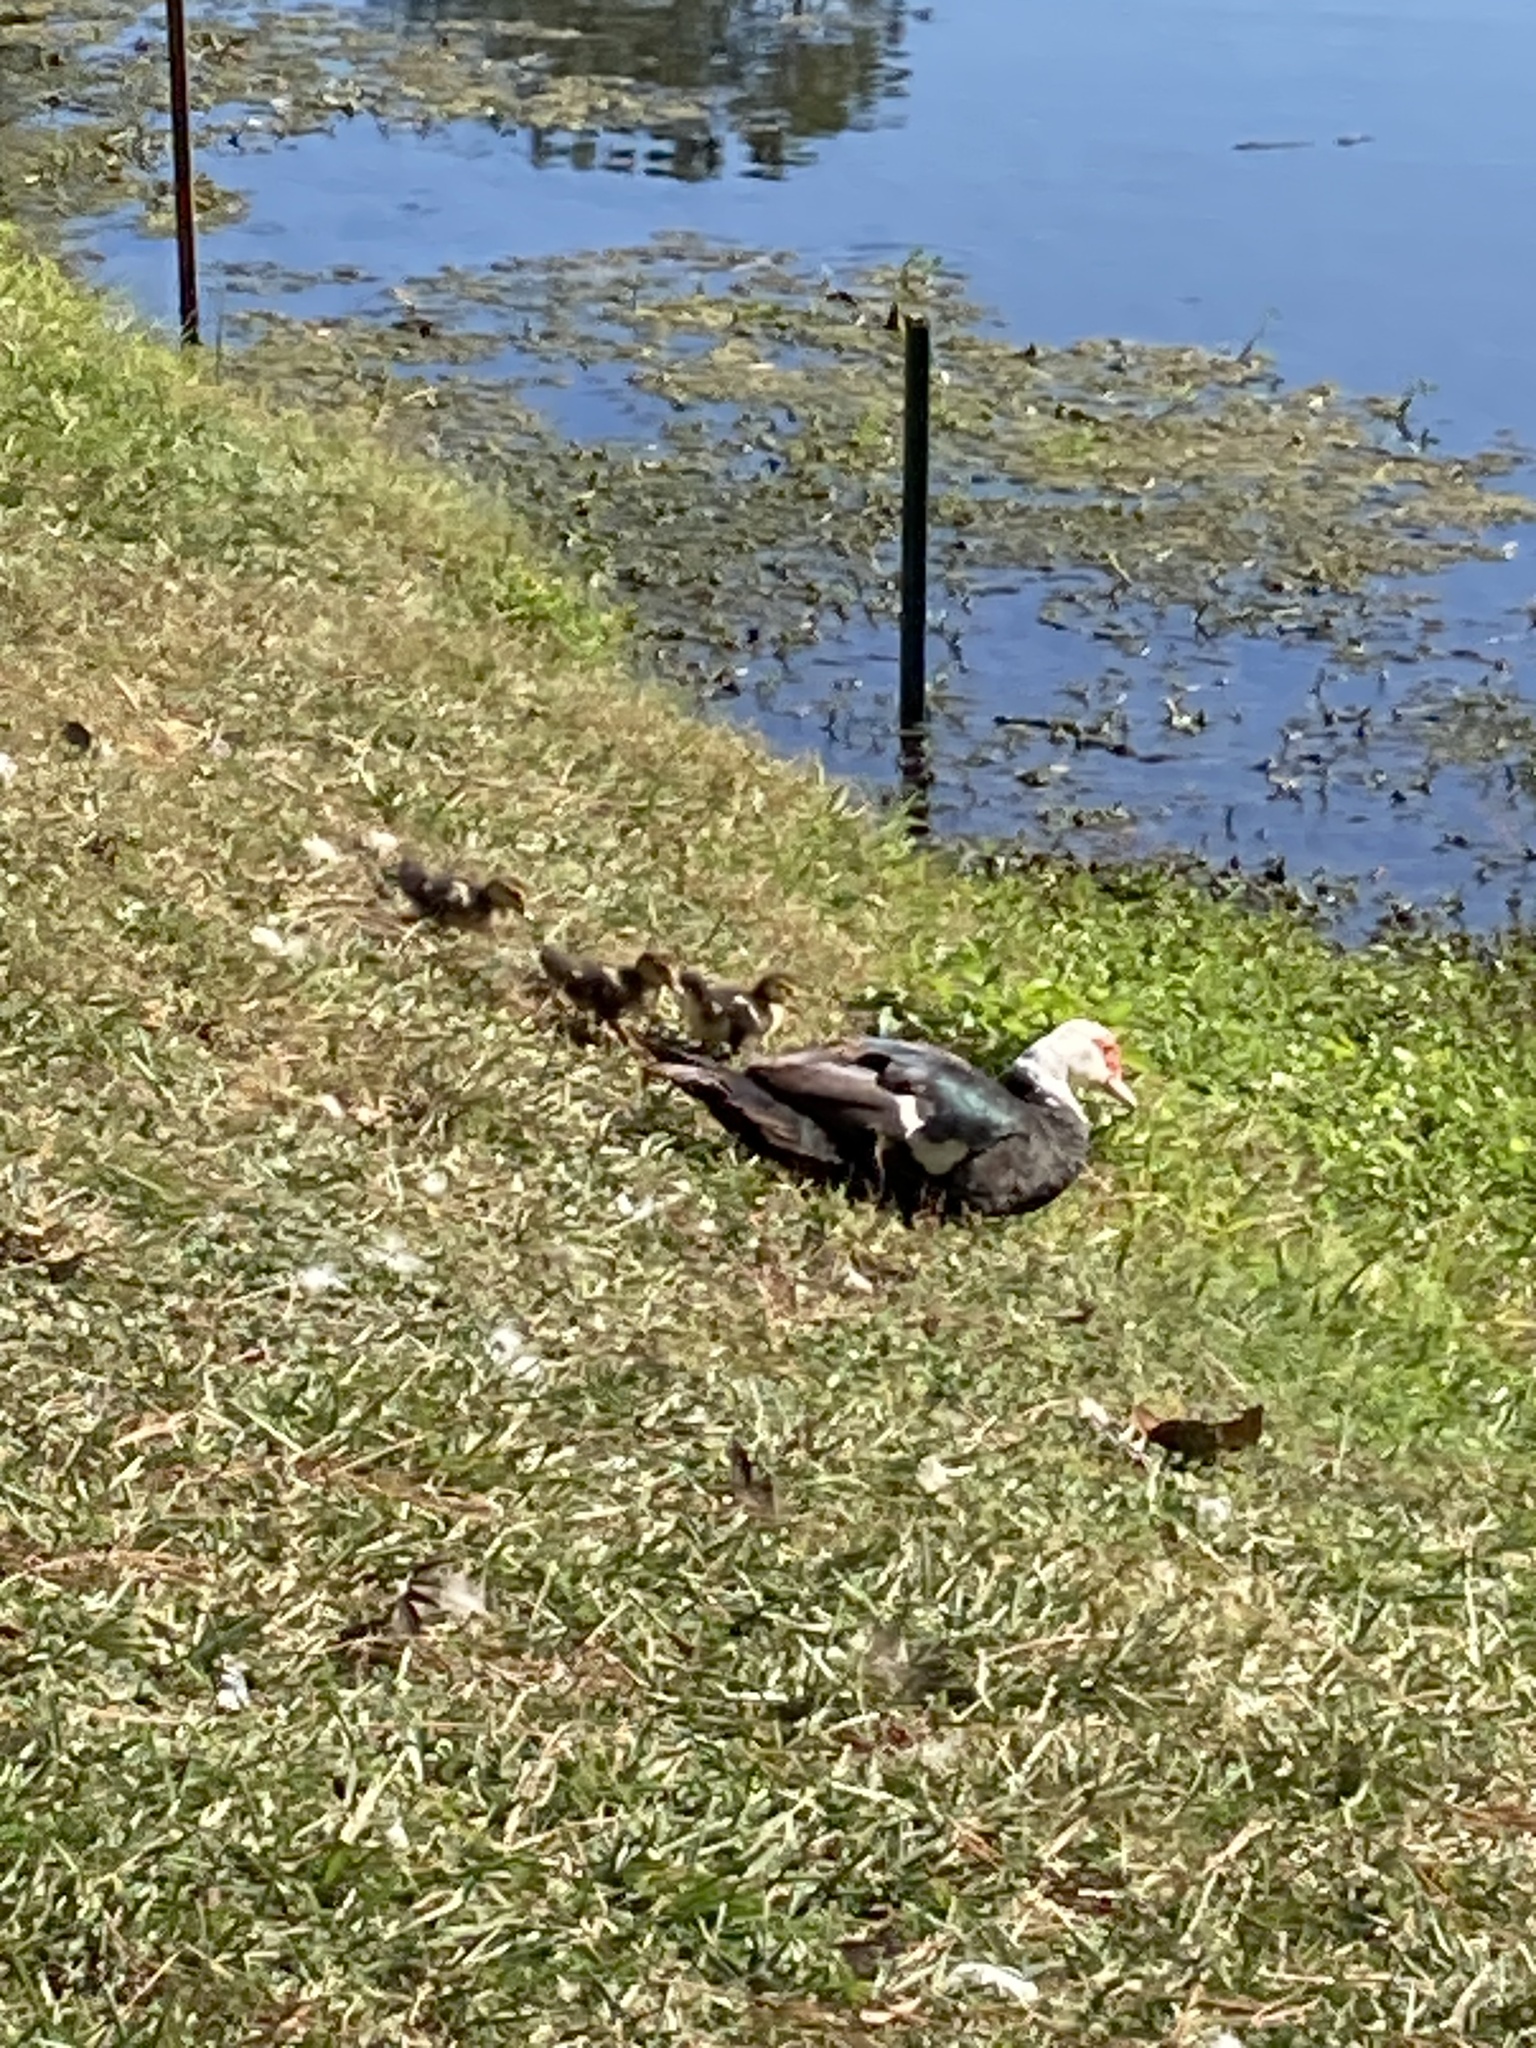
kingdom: Animalia
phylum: Chordata
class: Aves
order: Anseriformes
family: Anatidae
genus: Cairina
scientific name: Cairina moschata
